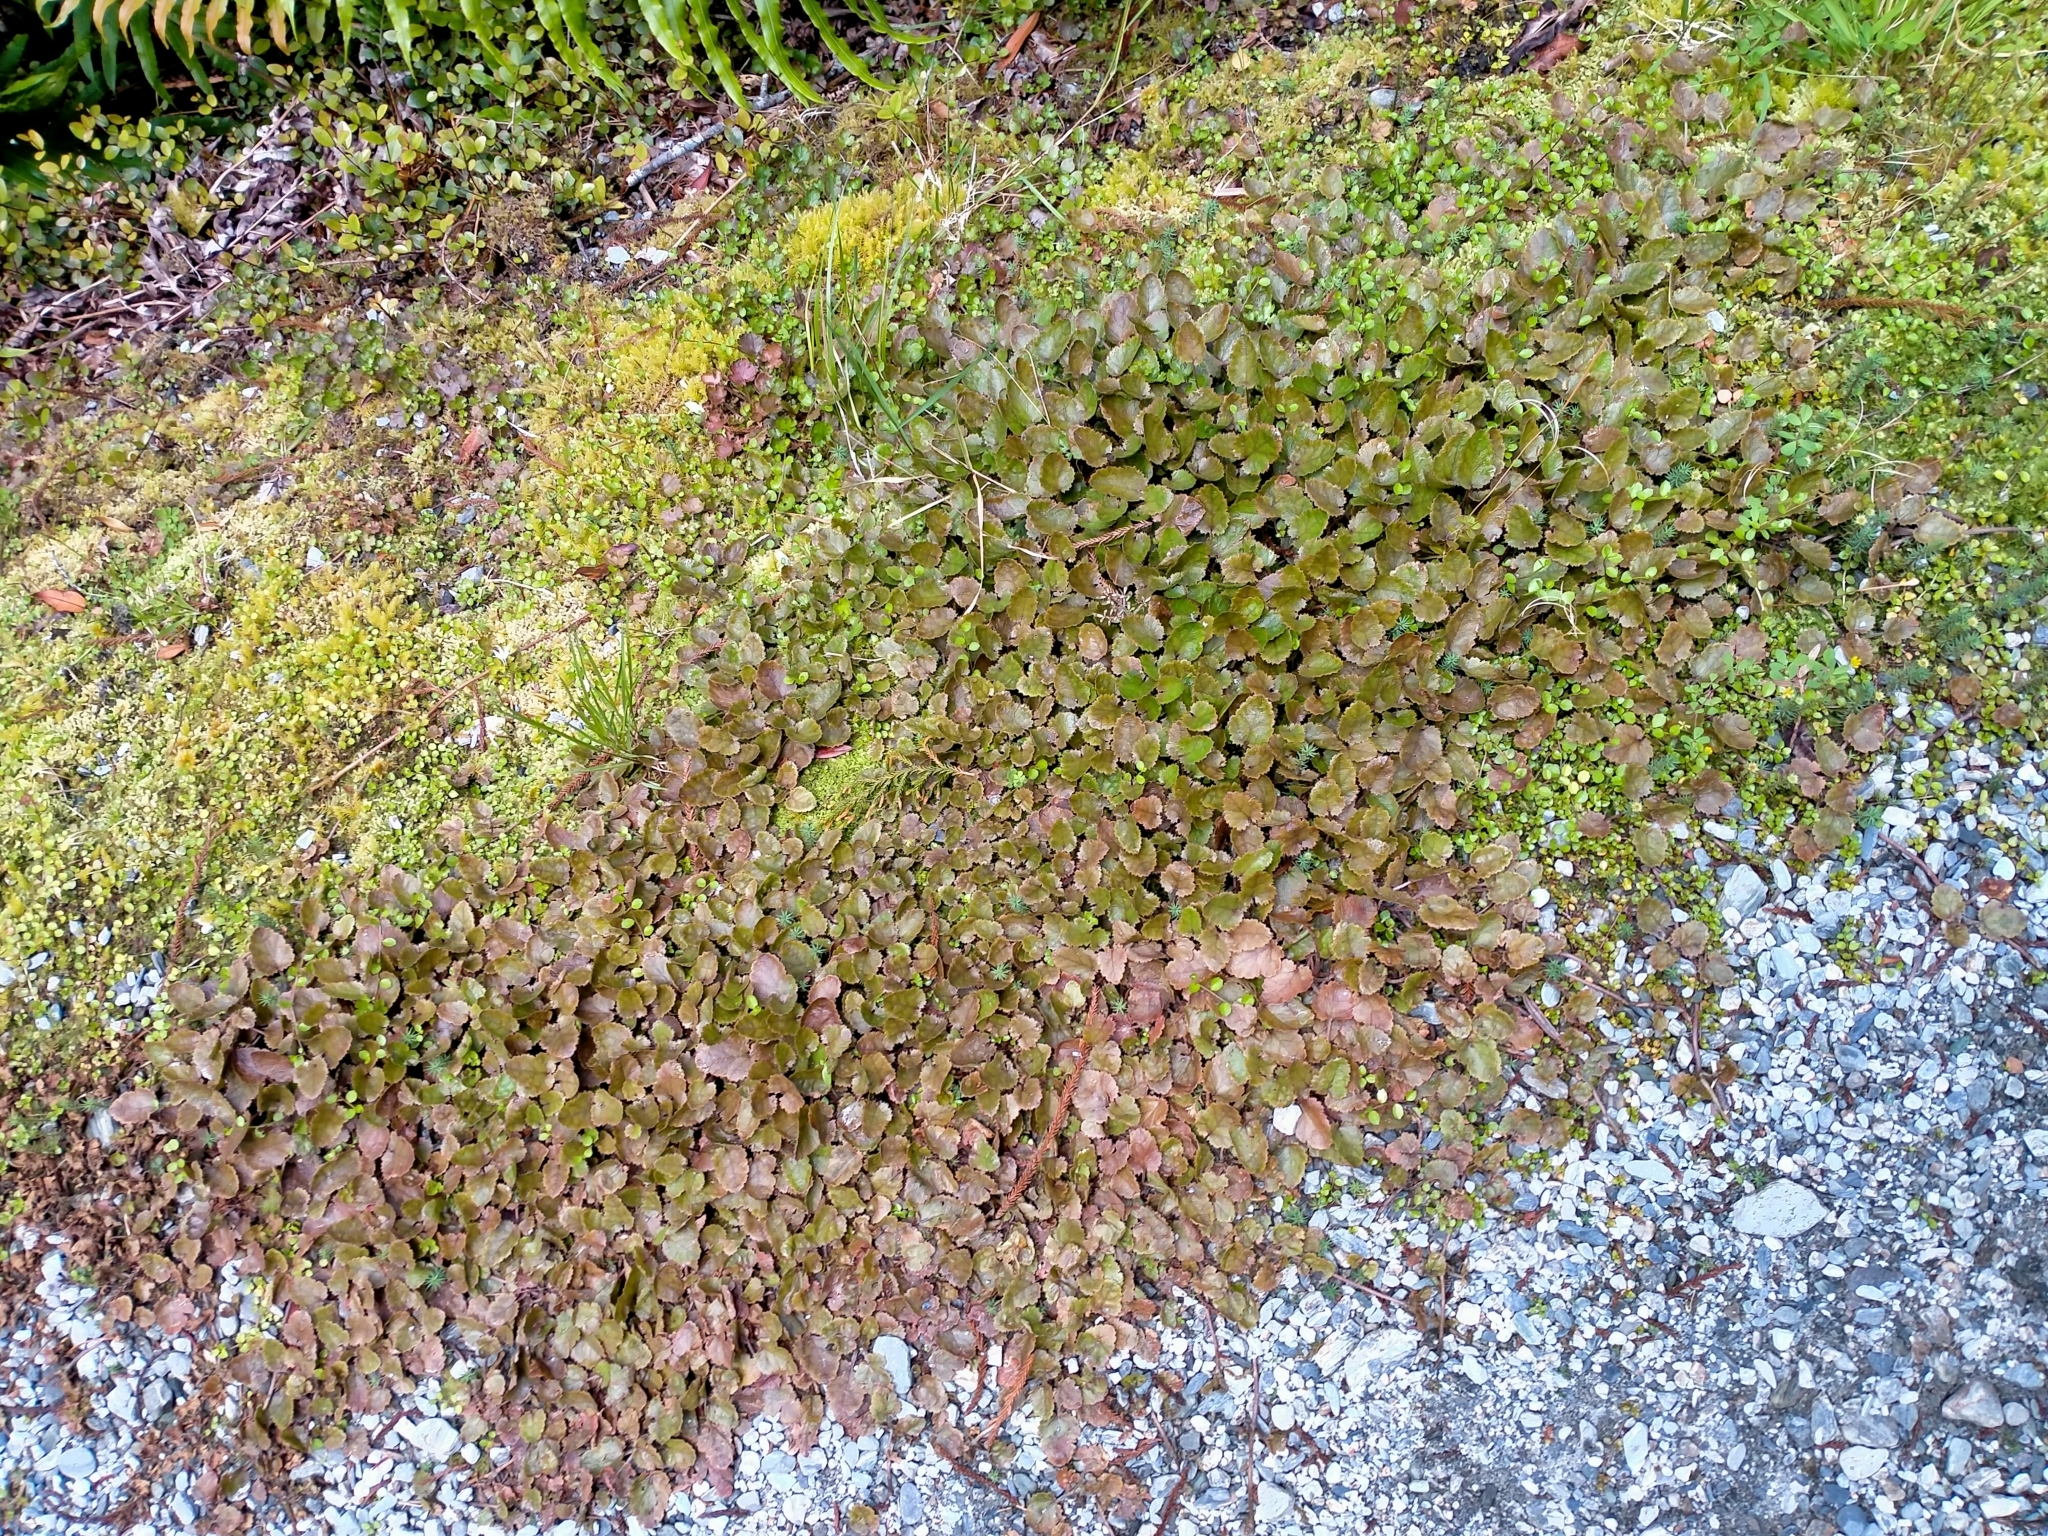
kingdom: Plantae
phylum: Tracheophyta
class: Magnoliopsida
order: Gunnerales
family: Gunneraceae
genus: Gunnera
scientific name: Gunnera prorepens
